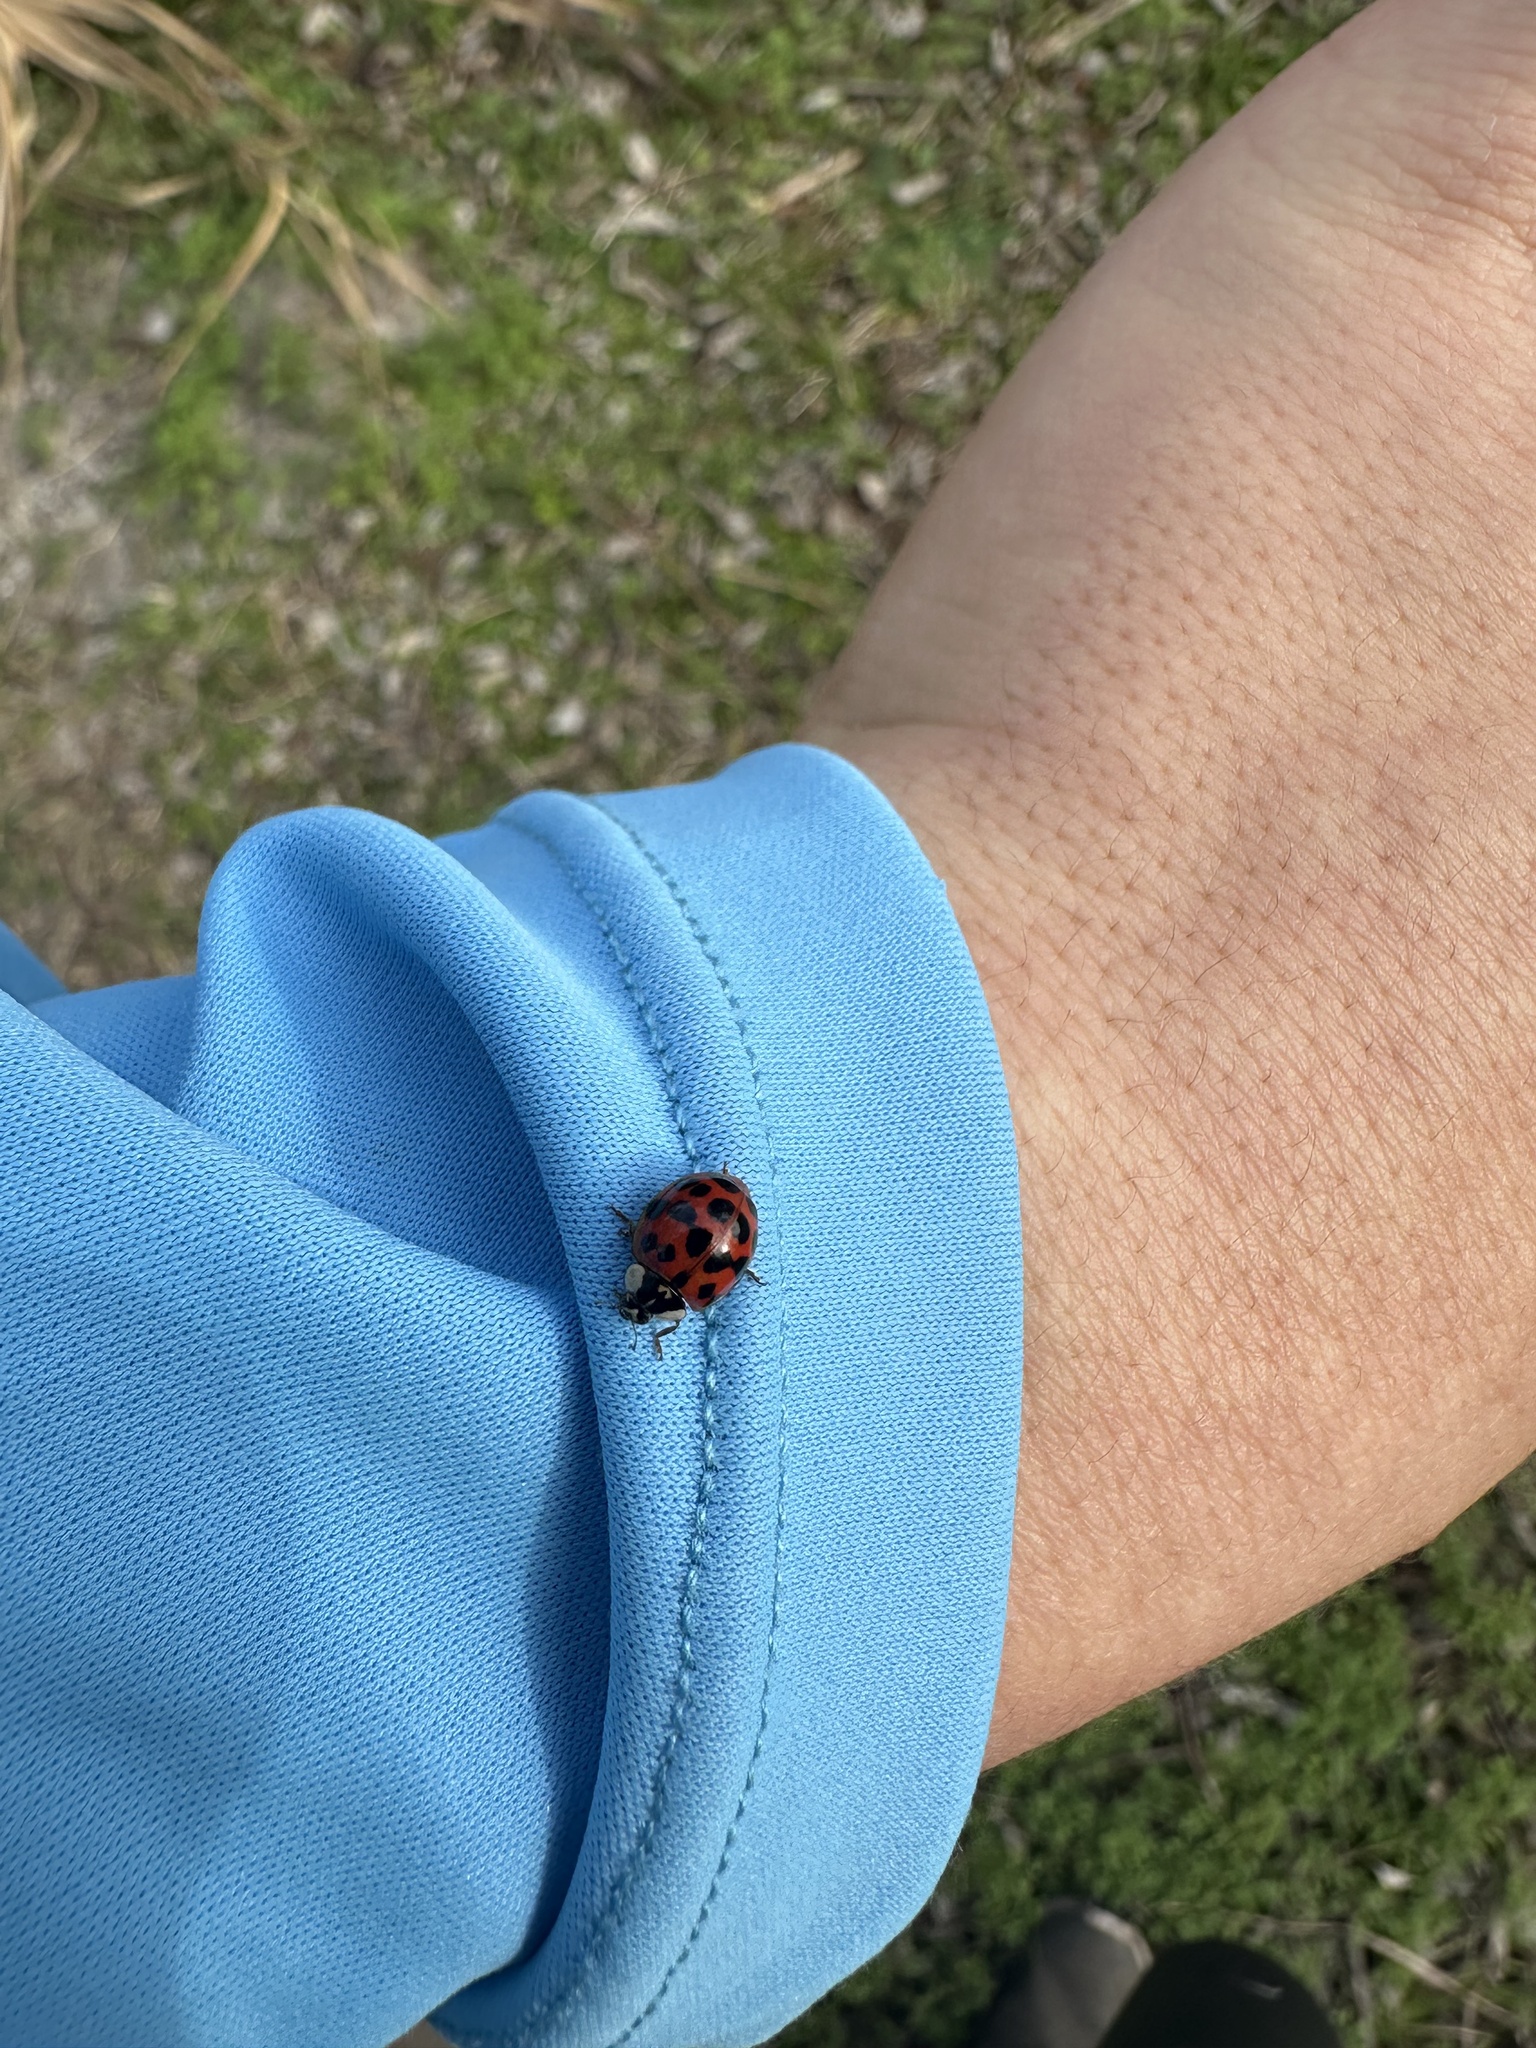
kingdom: Animalia
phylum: Arthropoda
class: Insecta
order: Coleoptera
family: Coccinellidae
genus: Harmonia
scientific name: Harmonia axyridis
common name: Harlequin ladybird
